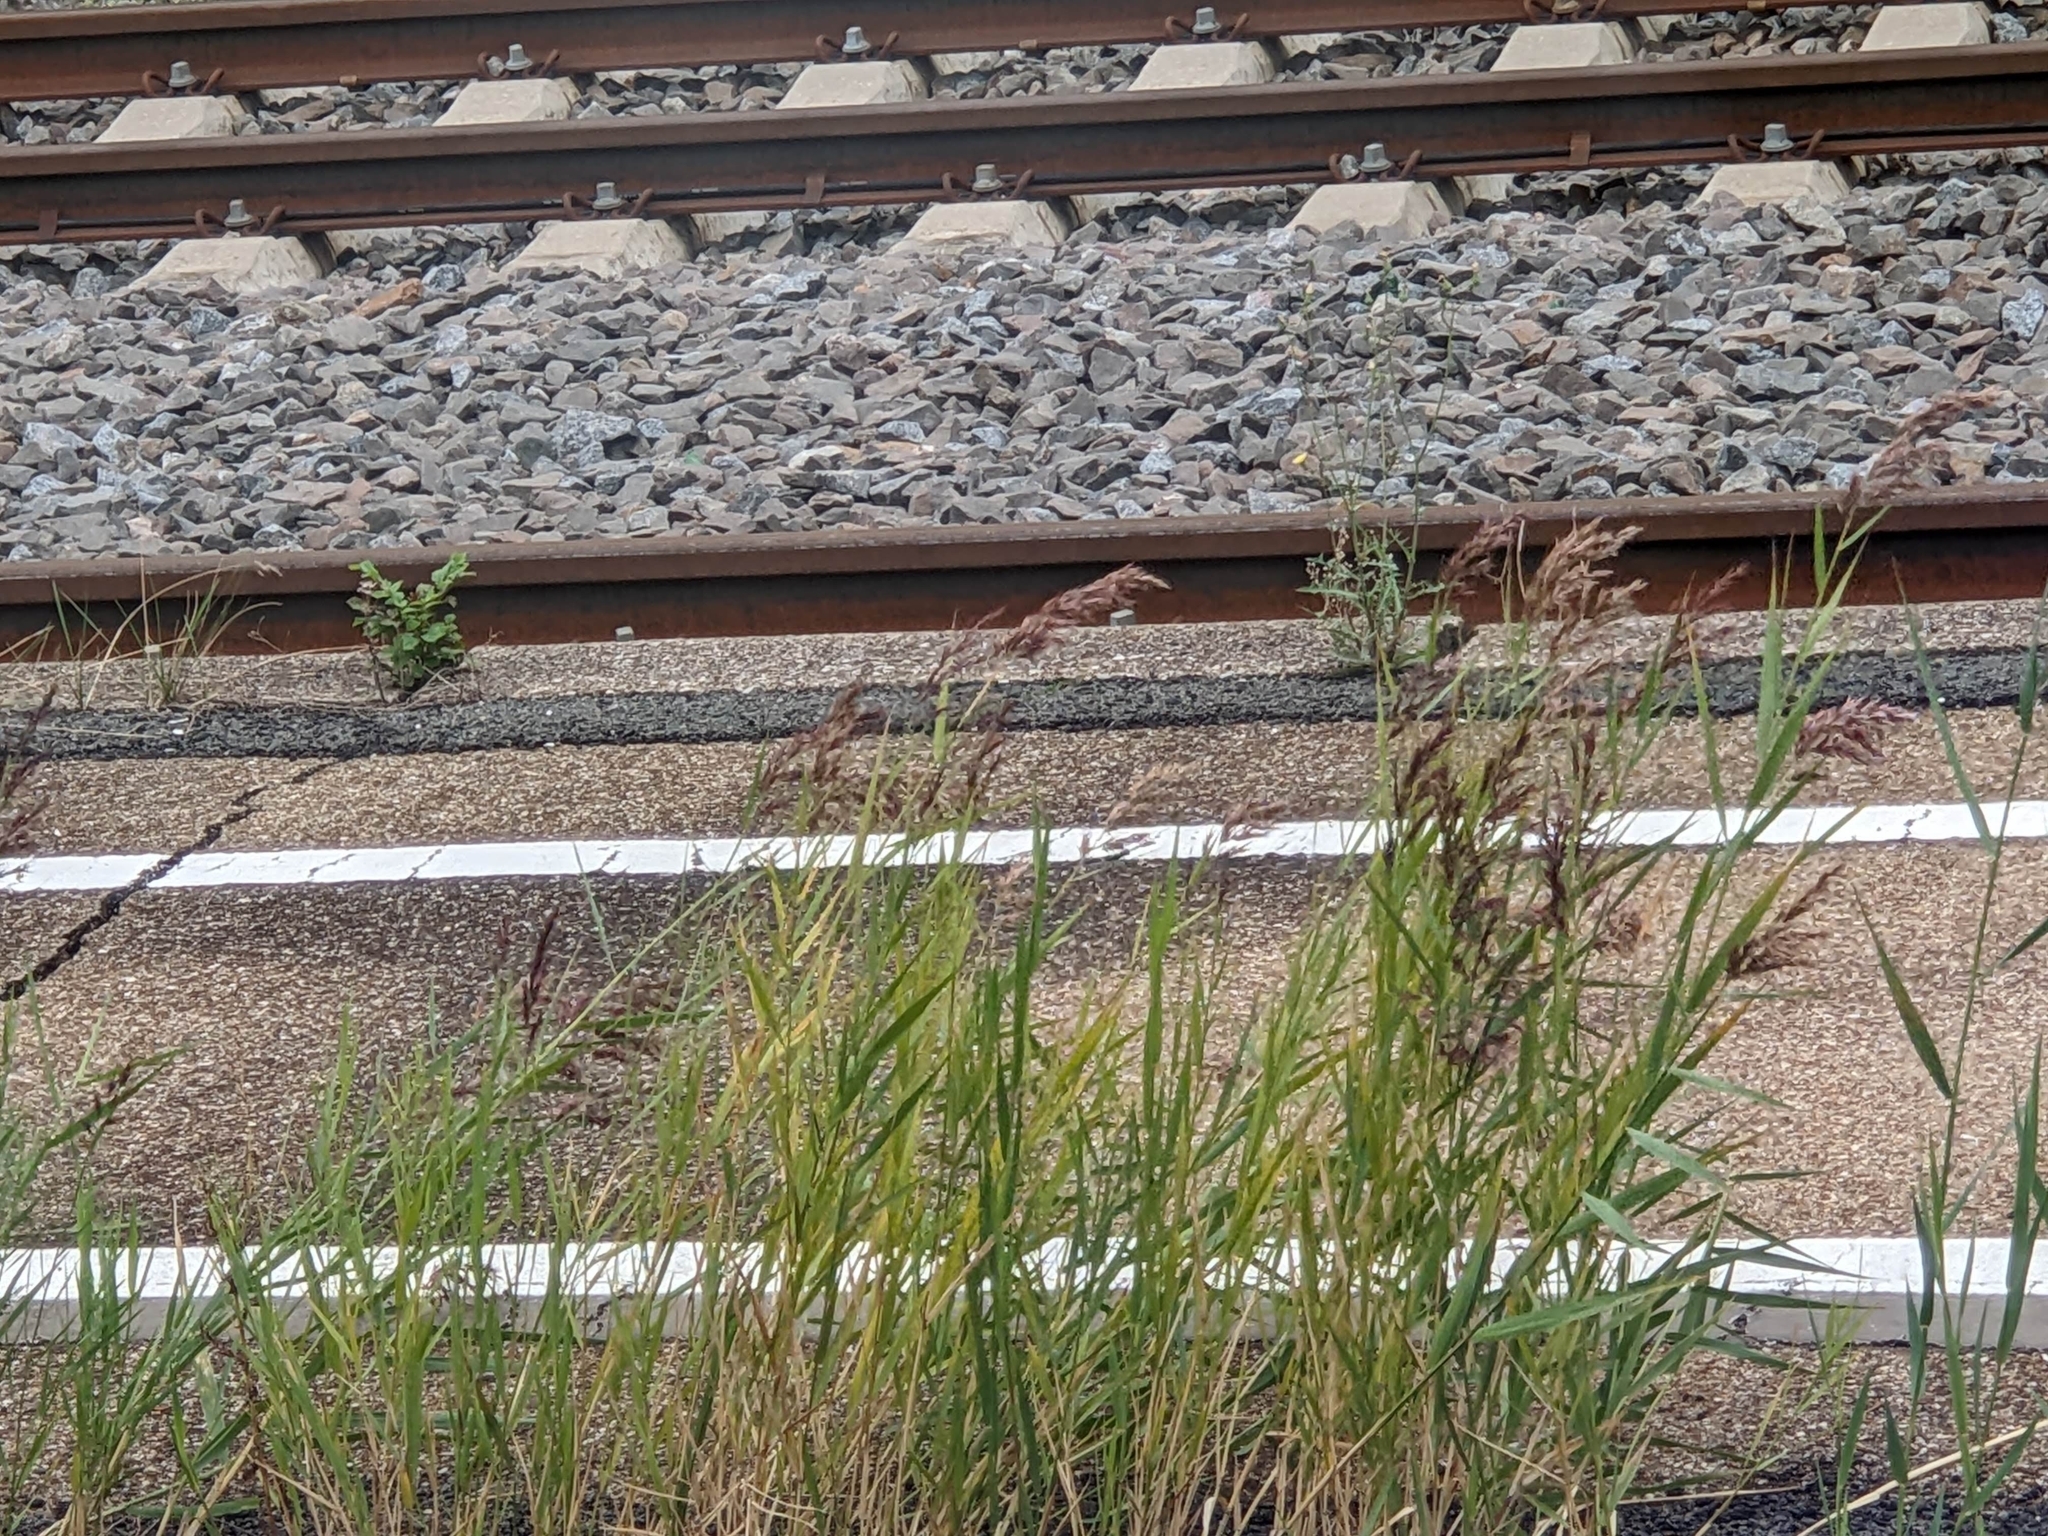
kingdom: Plantae
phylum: Tracheophyta
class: Liliopsida
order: Poales
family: Poaceae
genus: Phragmites
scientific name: Phragmites australis
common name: Common reed
